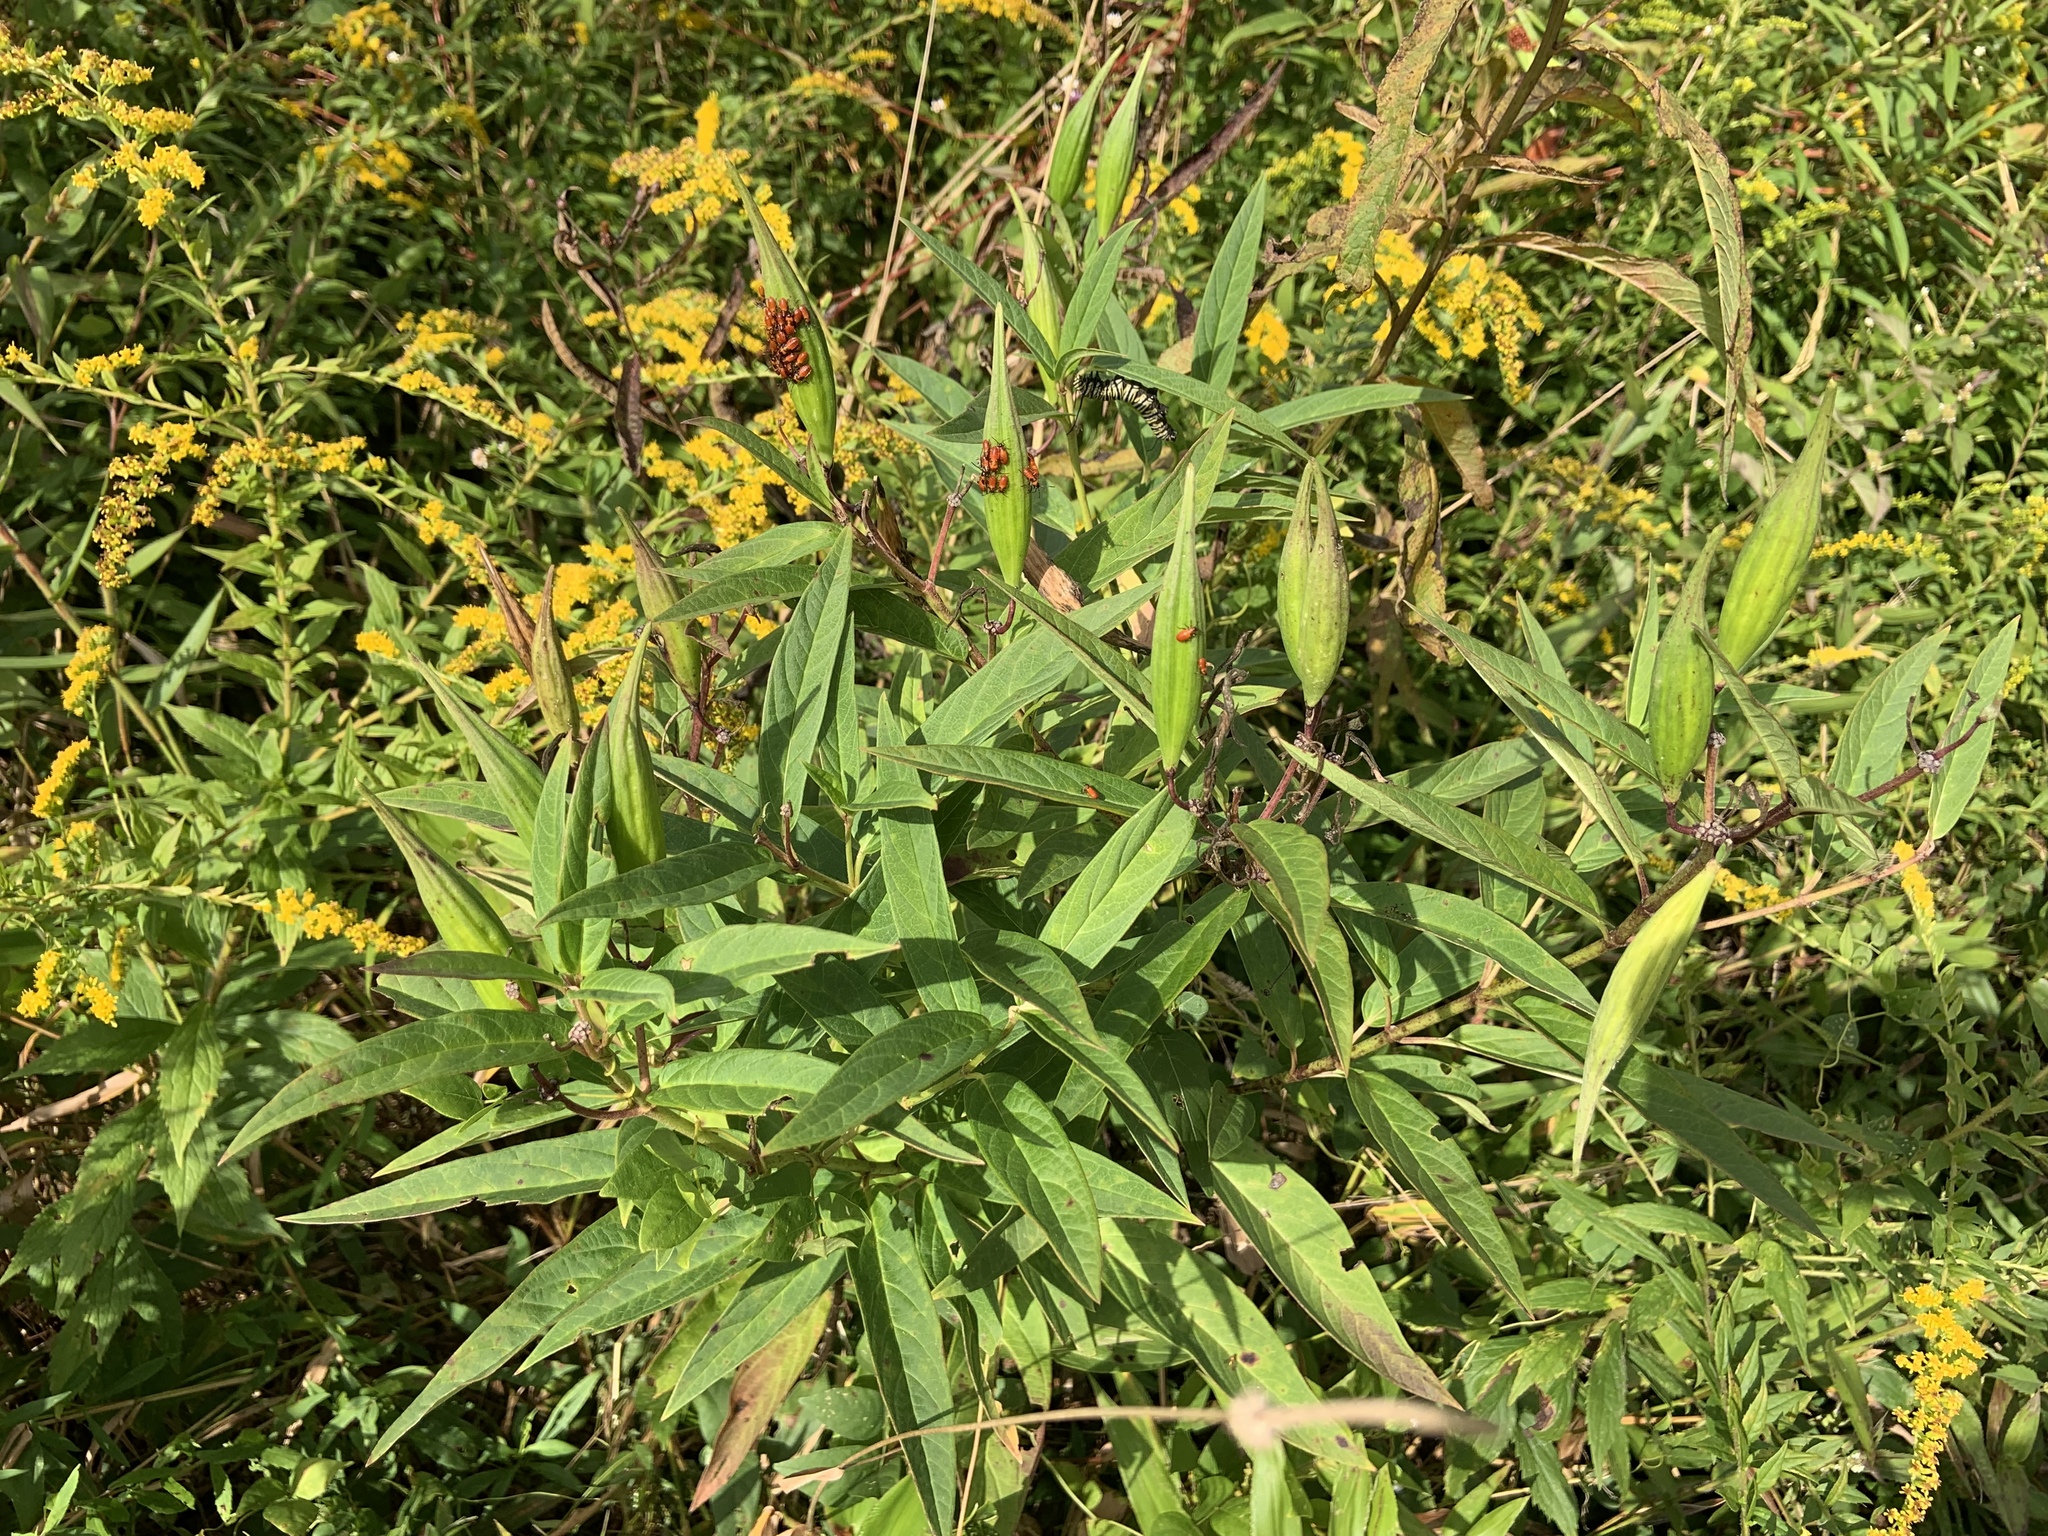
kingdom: Plantae
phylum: Tracheophyta
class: Magnoliopsida
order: Gentianales
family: Apocynaceae
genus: Asclepias
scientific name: Asclepias incarnata
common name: Swamp milkweed
